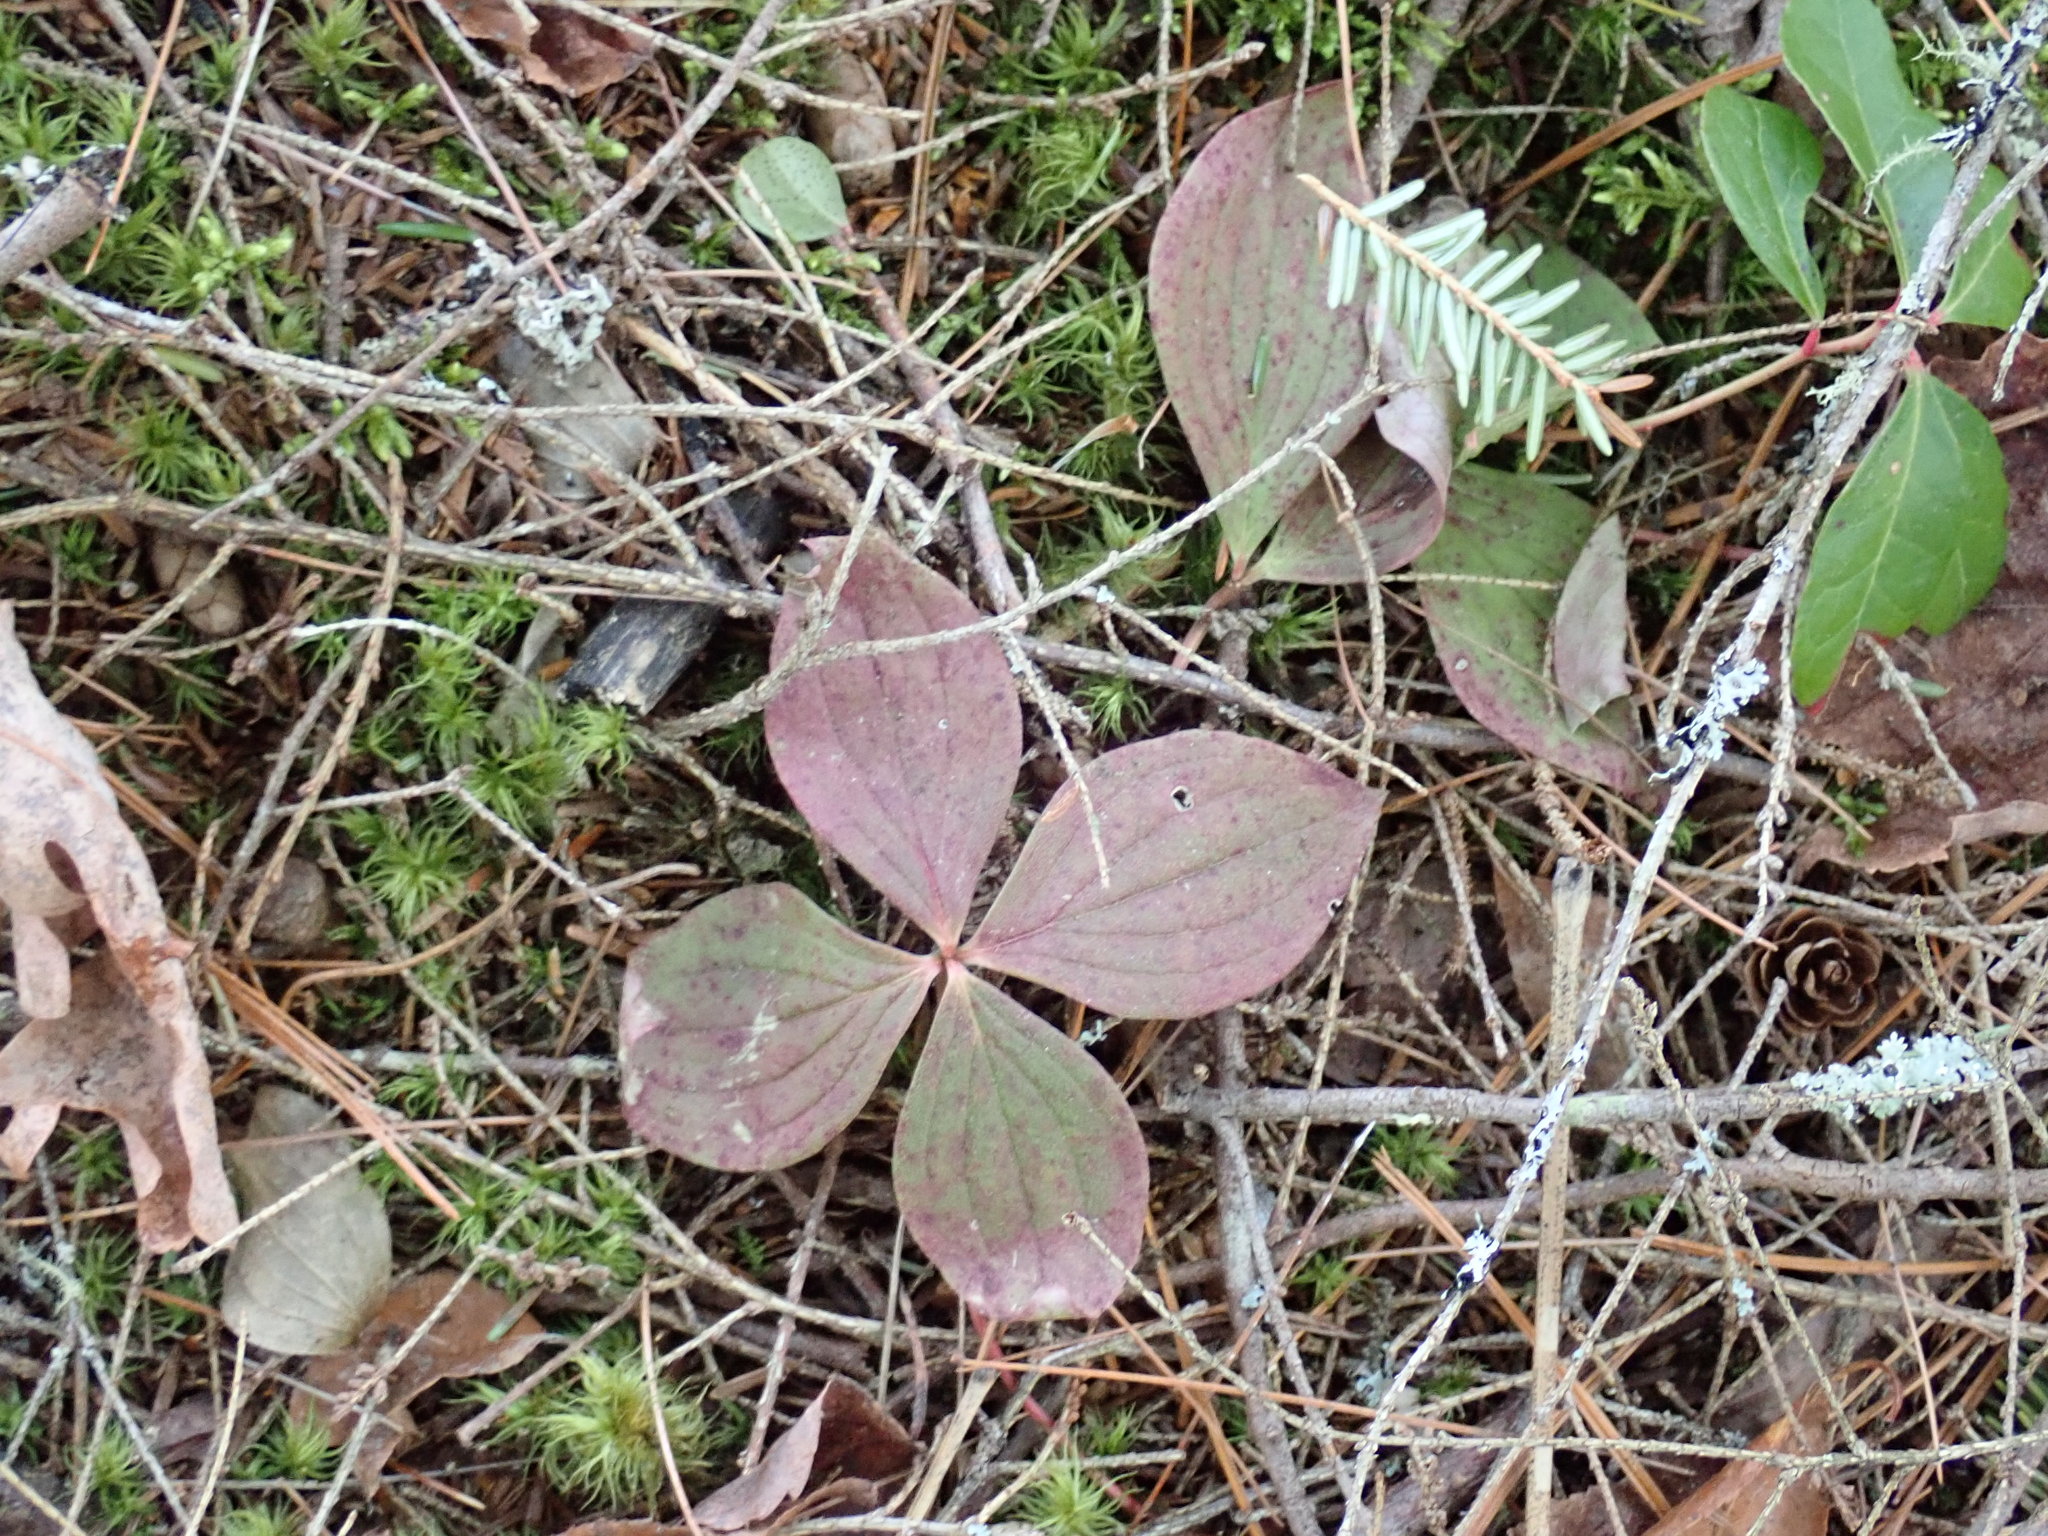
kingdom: Plantae
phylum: Tracheophyta
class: Magnoliopsida
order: Cornales
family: Cornaceae
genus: Cornus
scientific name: Cornus canadensis
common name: Creeping dogwood
